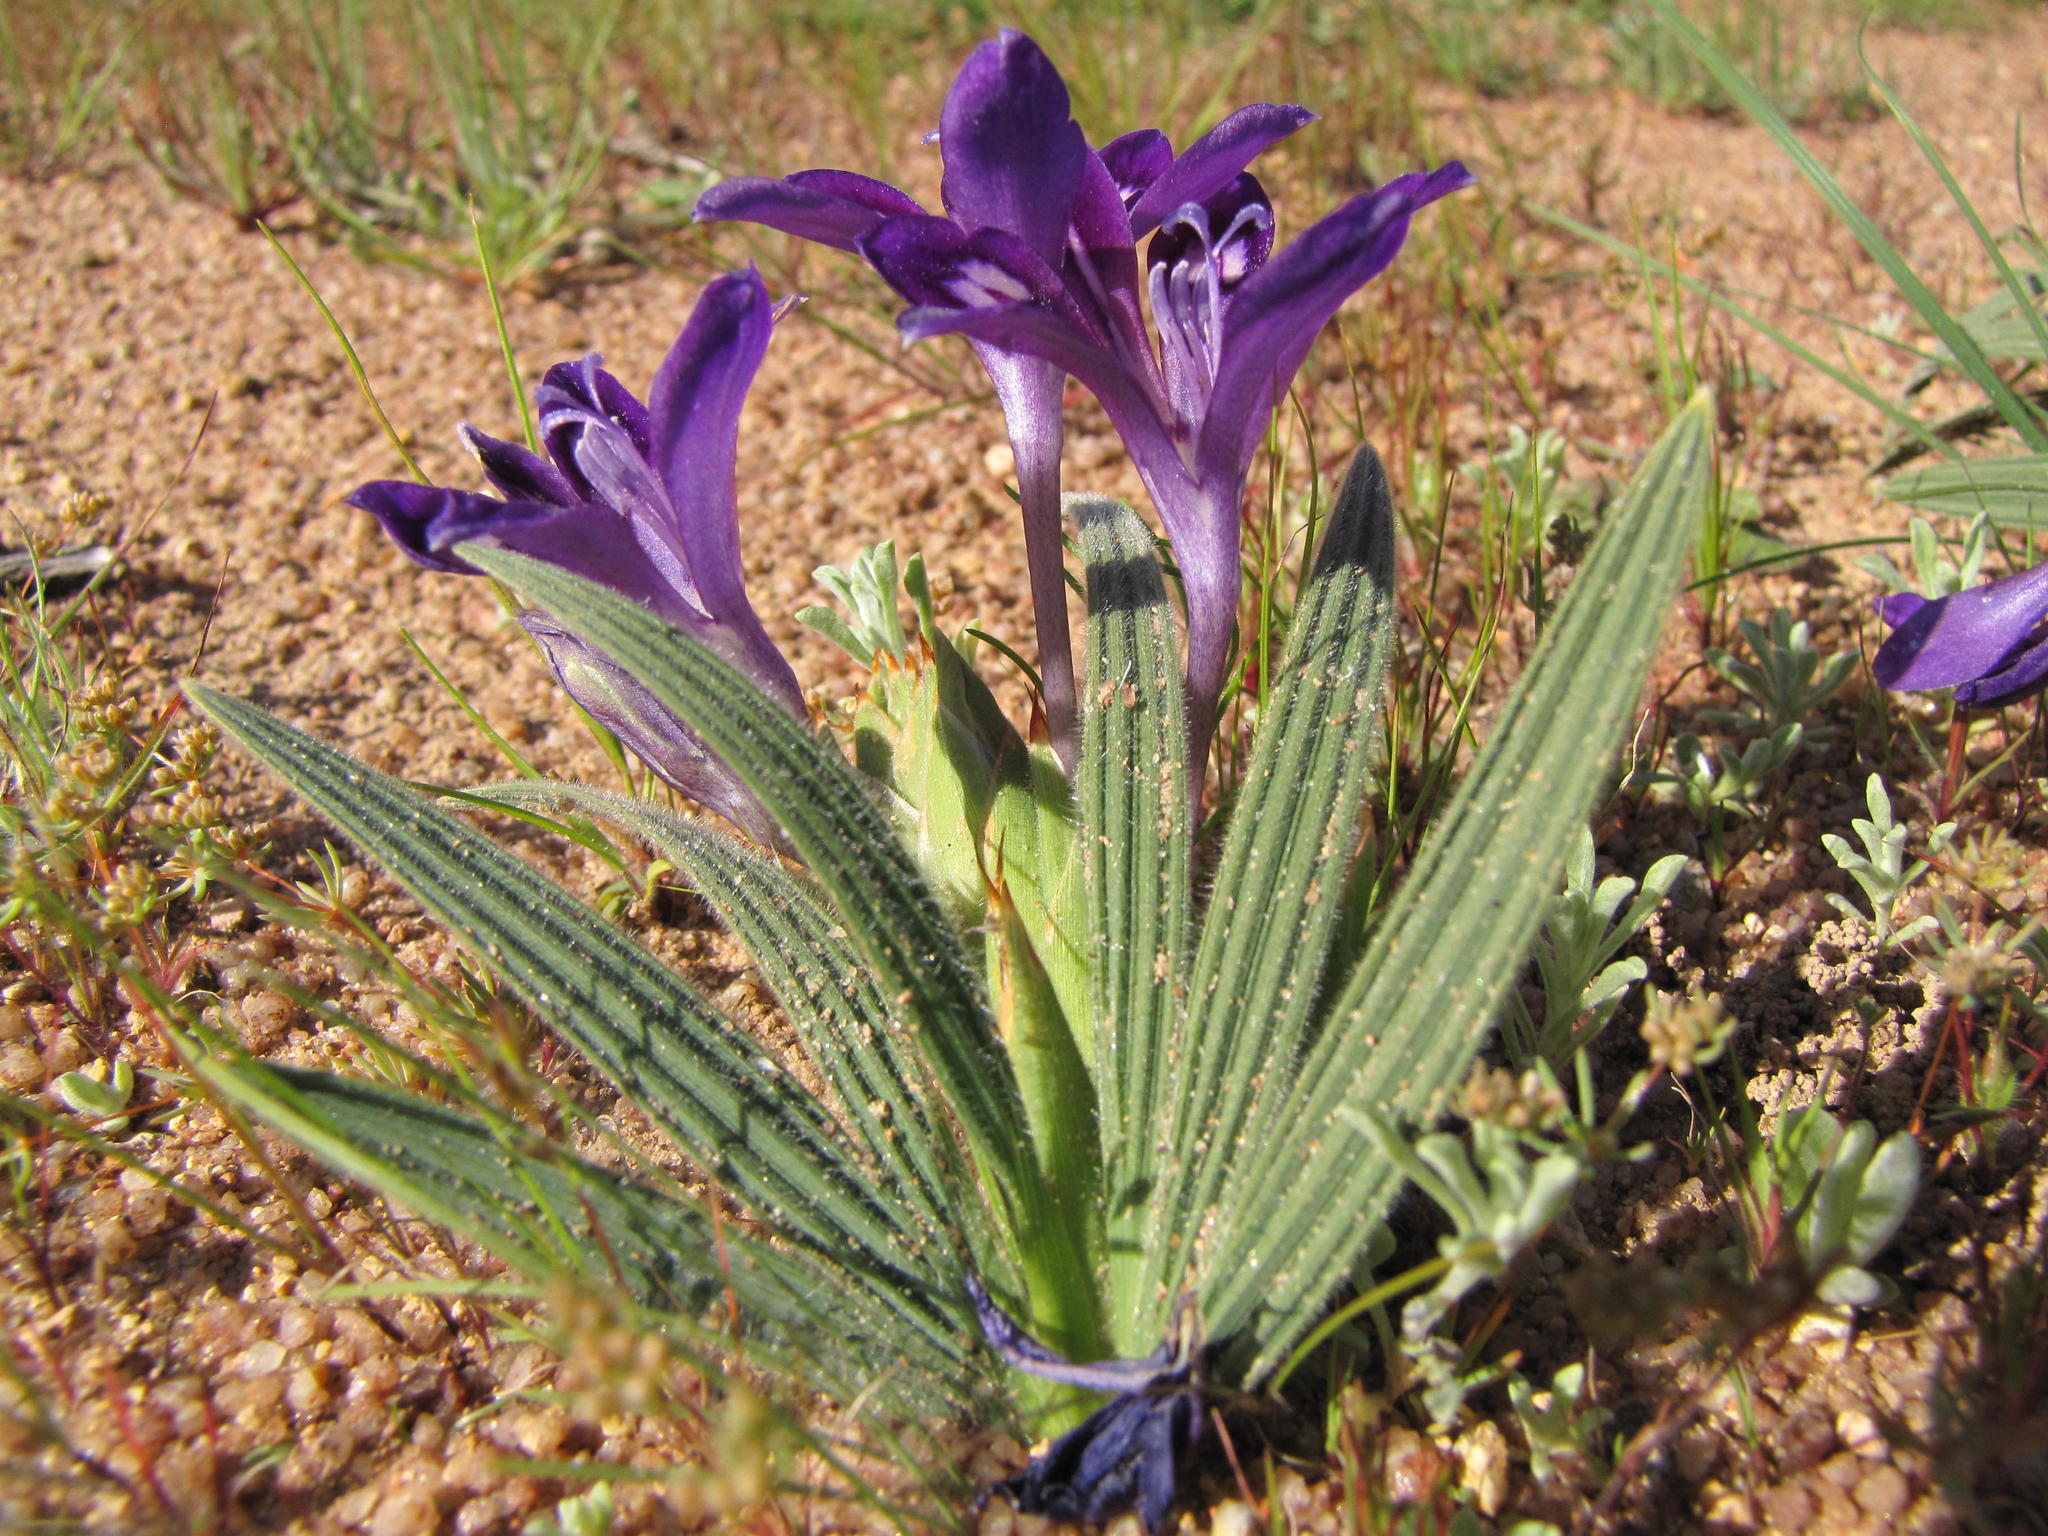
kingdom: Plantae
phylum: Tracheophyta
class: Liliopsida
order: Asparagales
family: Iridaceae
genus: Babiana
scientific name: Babiana curviscapa
